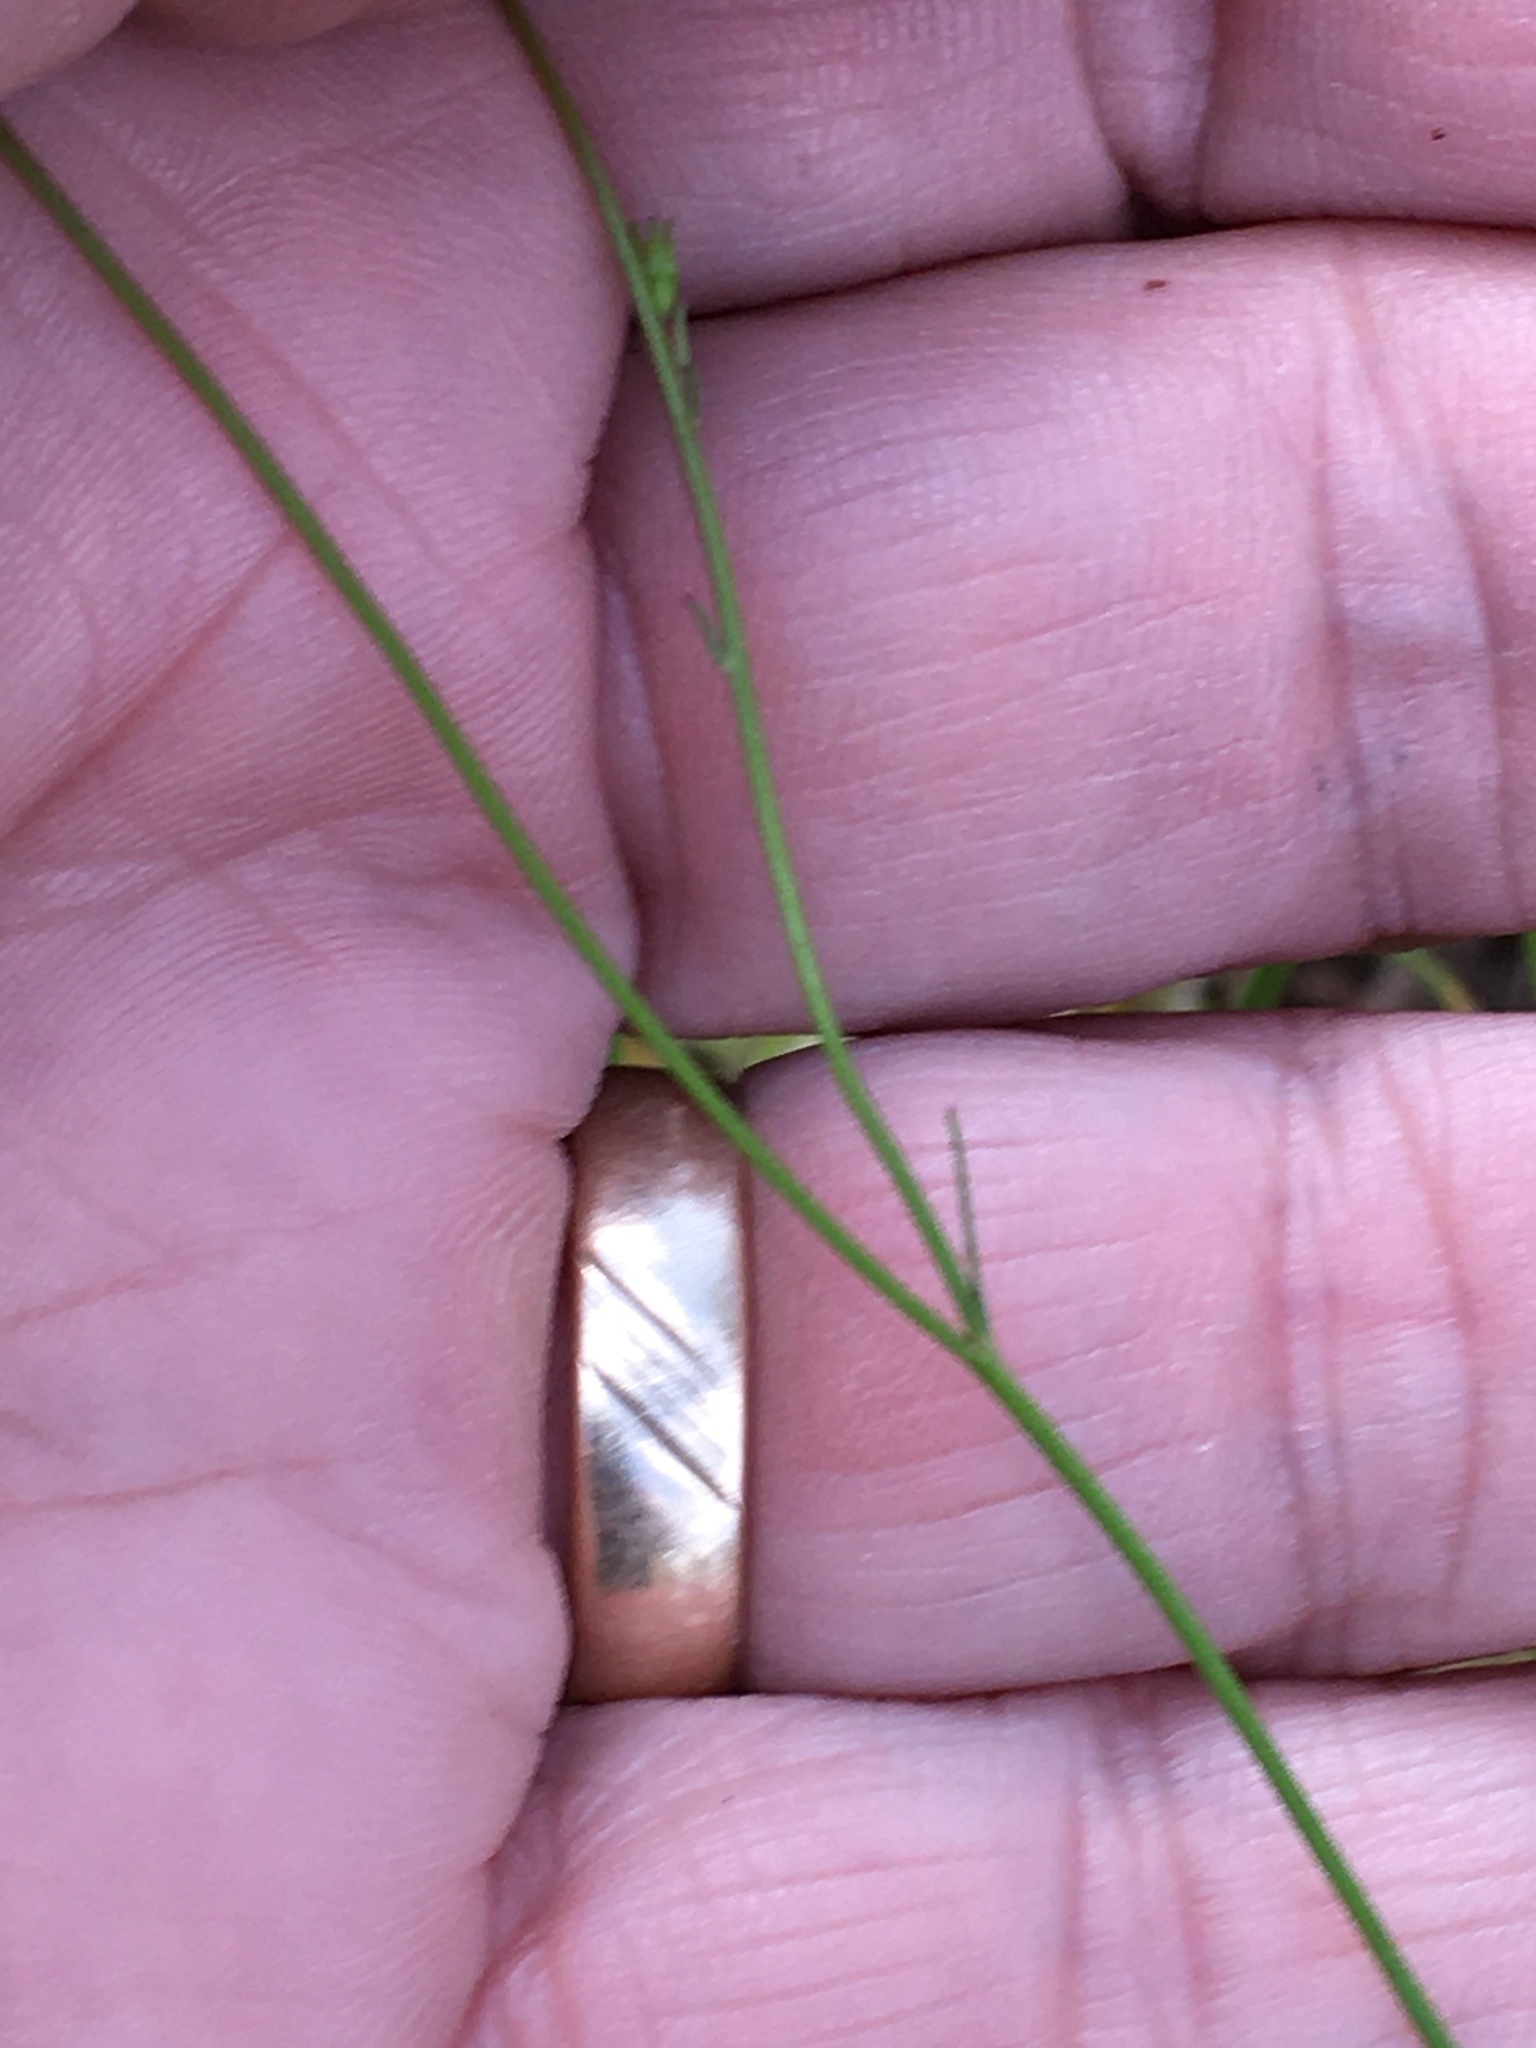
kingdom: Plantae
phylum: Tracheophyta
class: Magnoliopsida
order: Asterales
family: Campanulaceae
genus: Wahlenbergia
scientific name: Wahlenbergia marginata
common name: Southern rockbell
